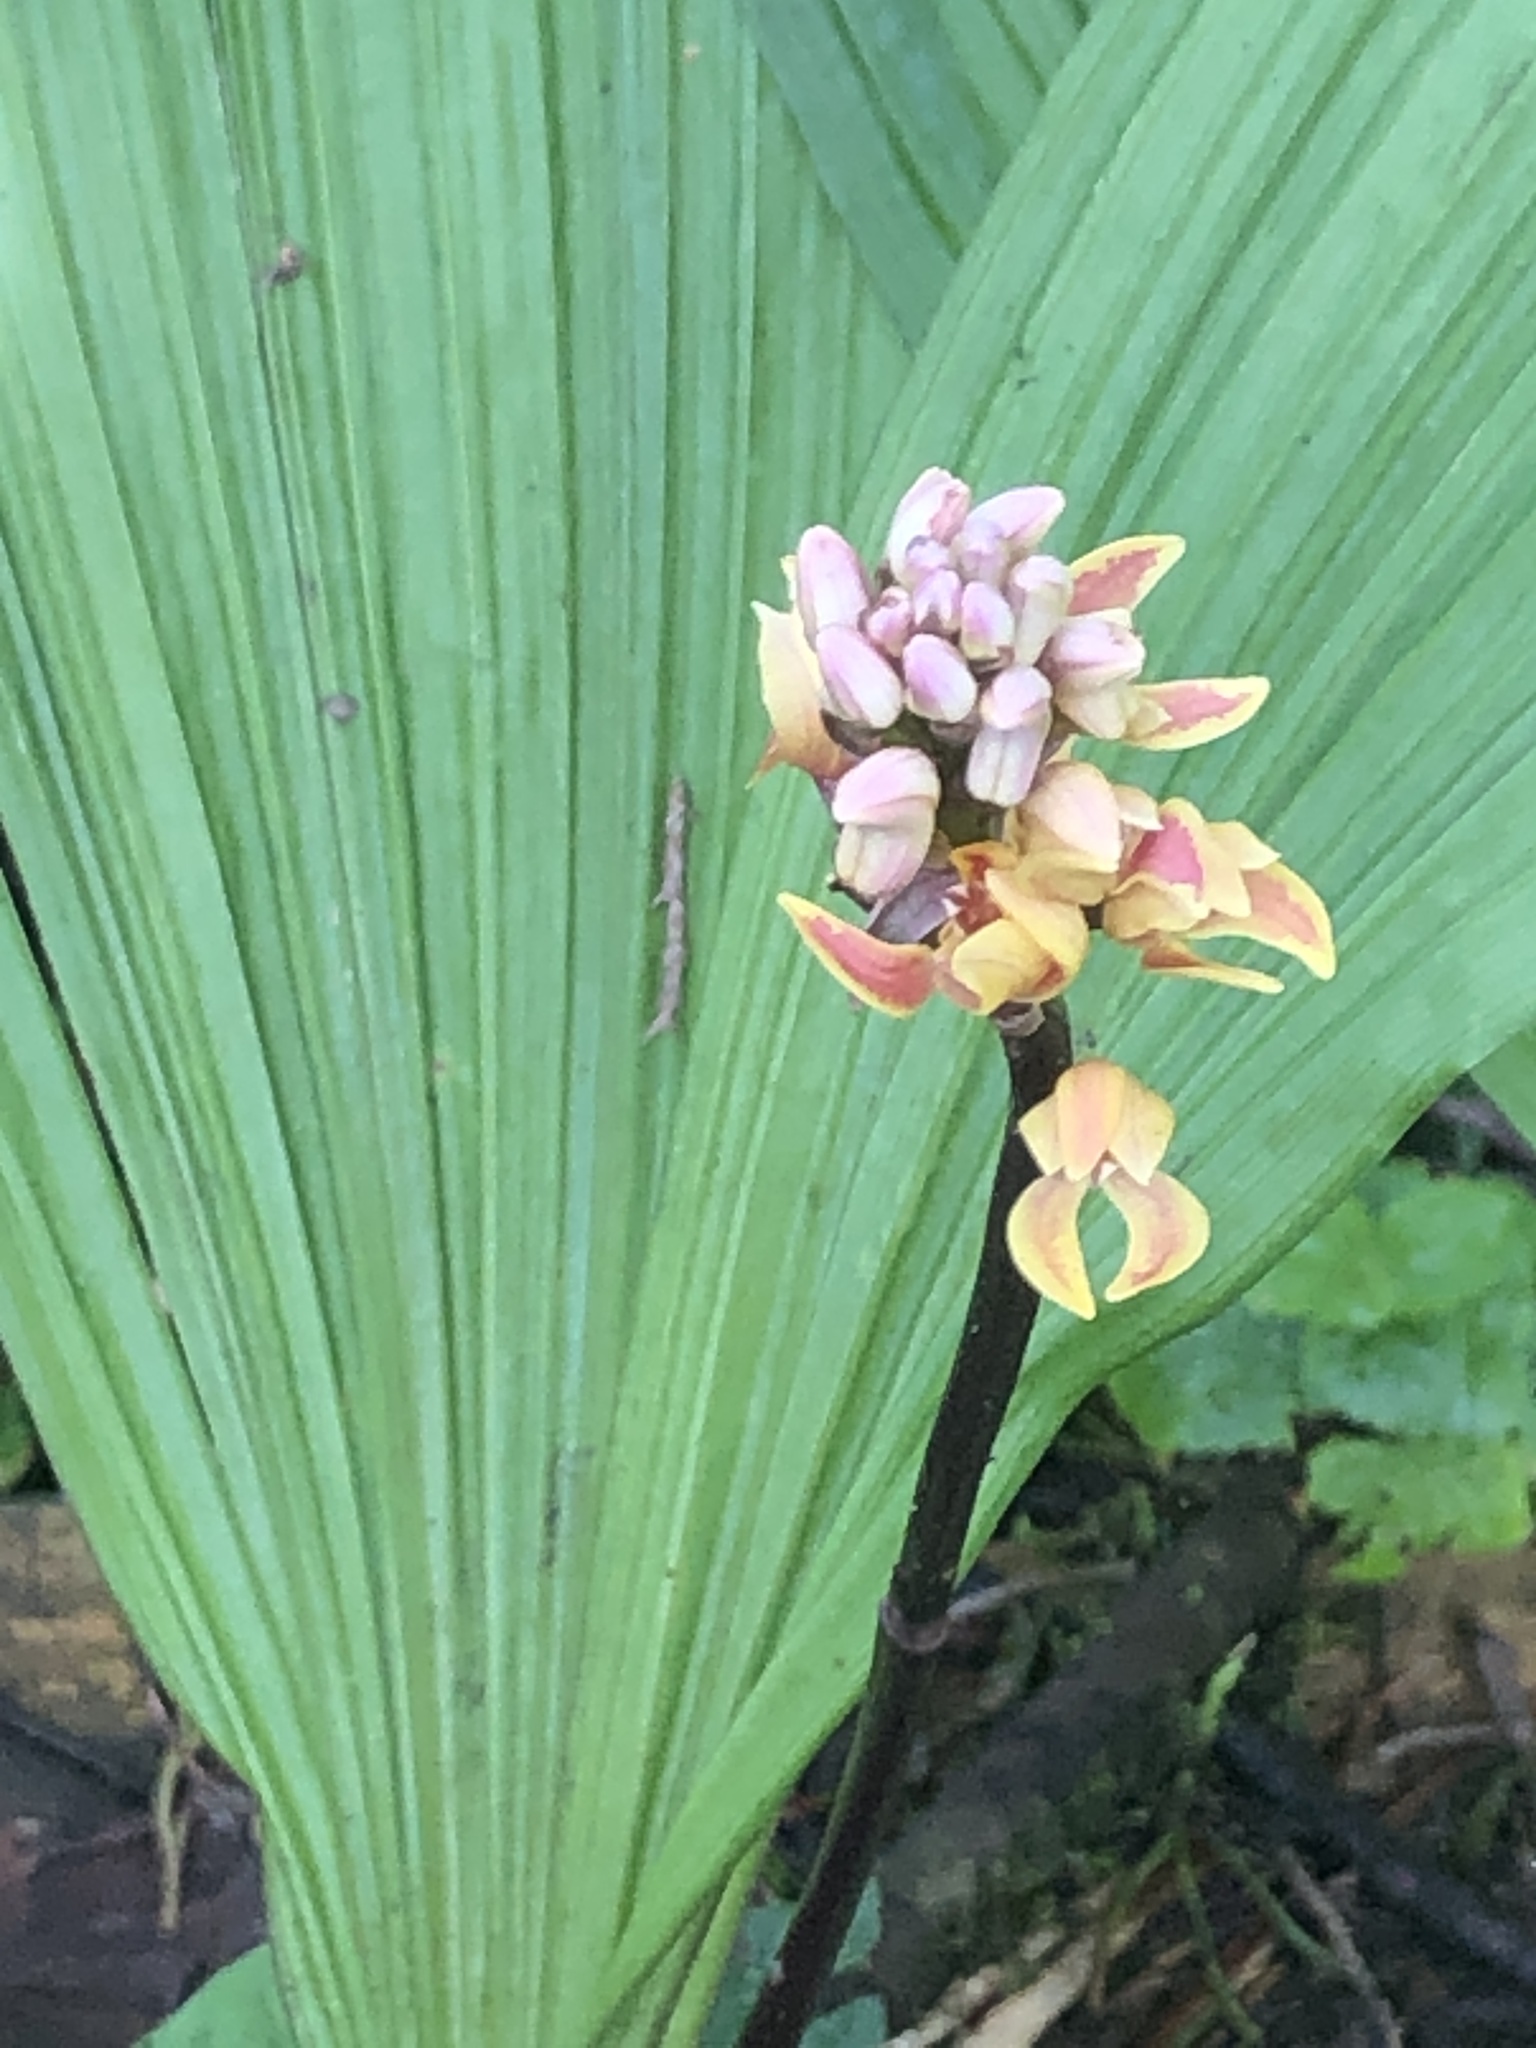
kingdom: Plantae
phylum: Tracheophyta
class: Liliopsida
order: Asparagales
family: Orchidaceae
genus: Govenia
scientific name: Govenia matudae
